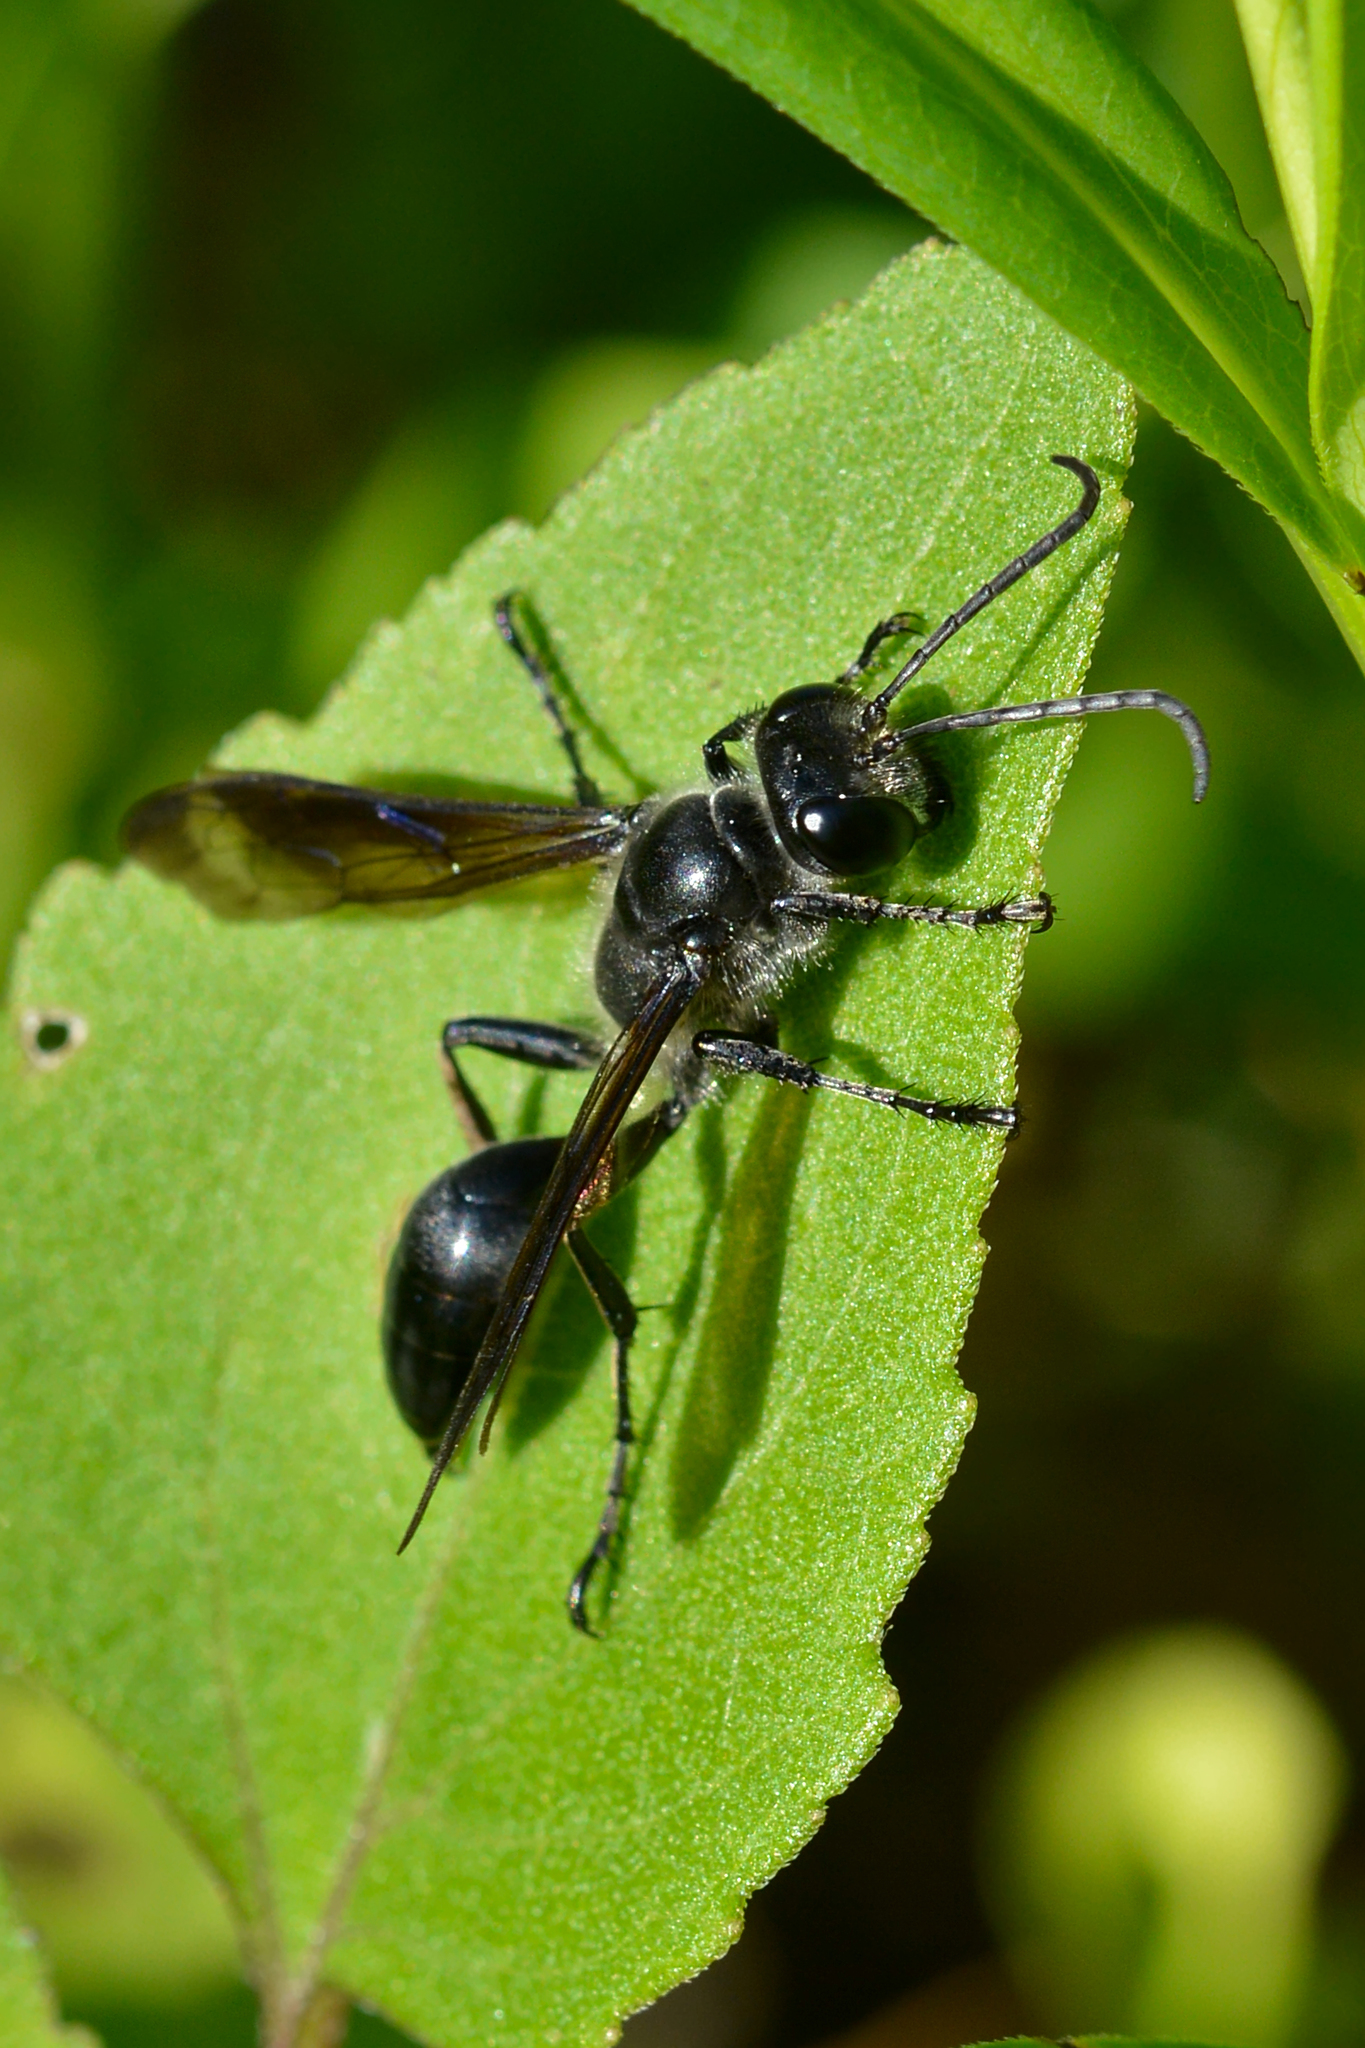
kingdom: Animalia
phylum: Arthropoda
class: Insecta
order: Hymenoptera
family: Sphecidae
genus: Isodontia
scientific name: Isodontia mexicana
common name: Mud dauber
